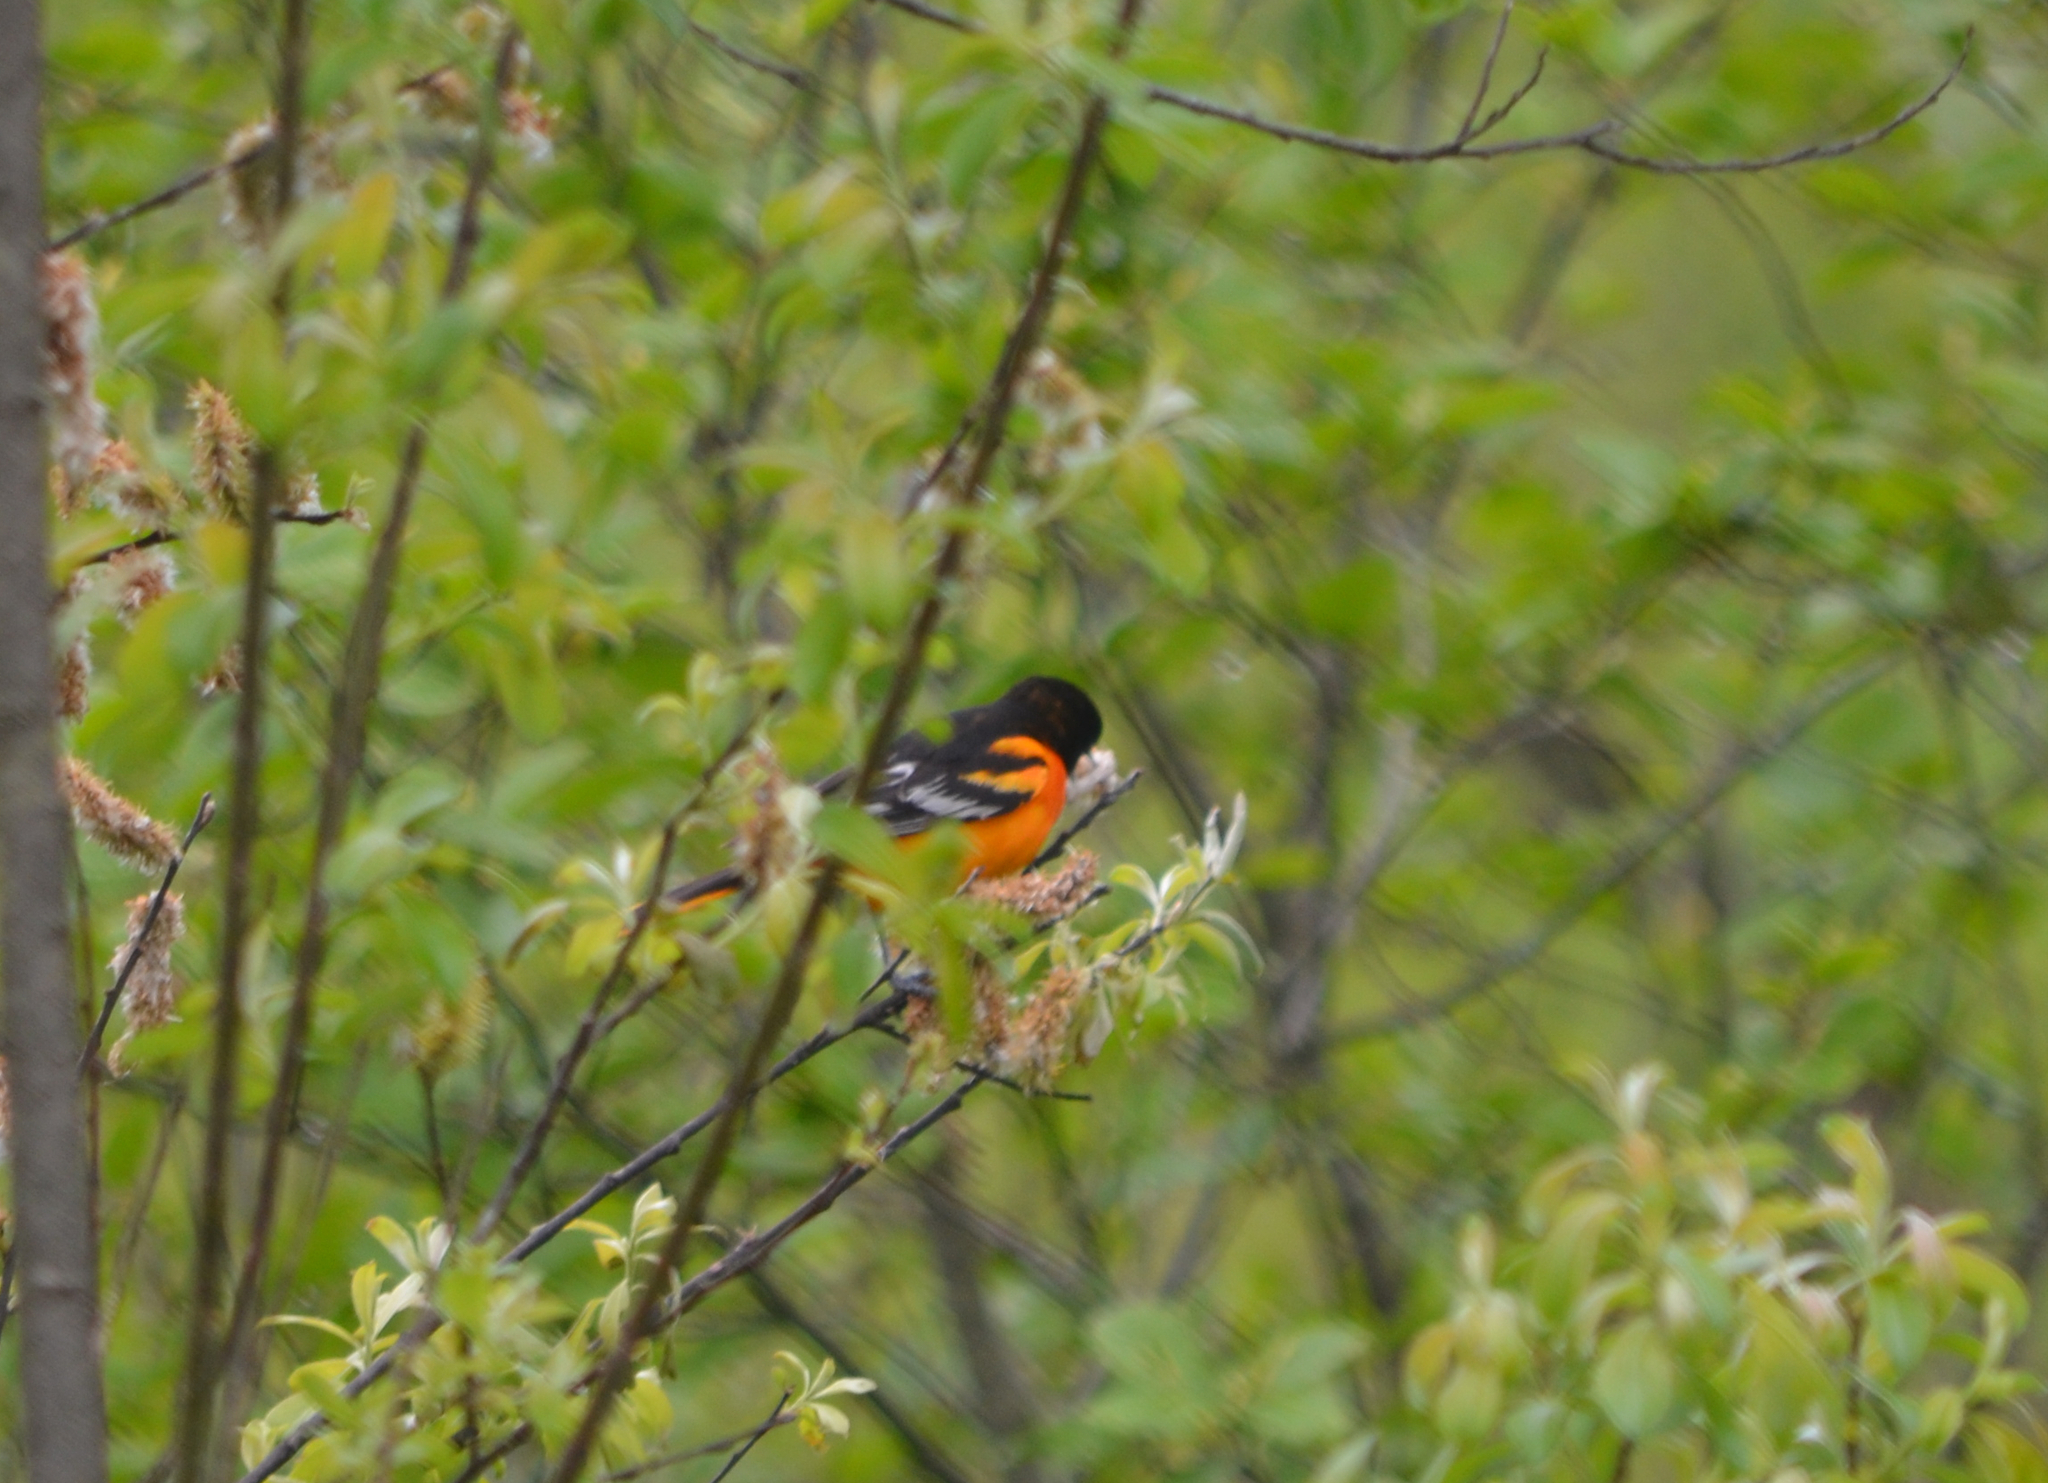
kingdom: Animalia
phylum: Chordata
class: Aves
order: Passeriformes
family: Icteridae
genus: Icterus
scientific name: Icterus galbula
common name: Baltimore oriole
